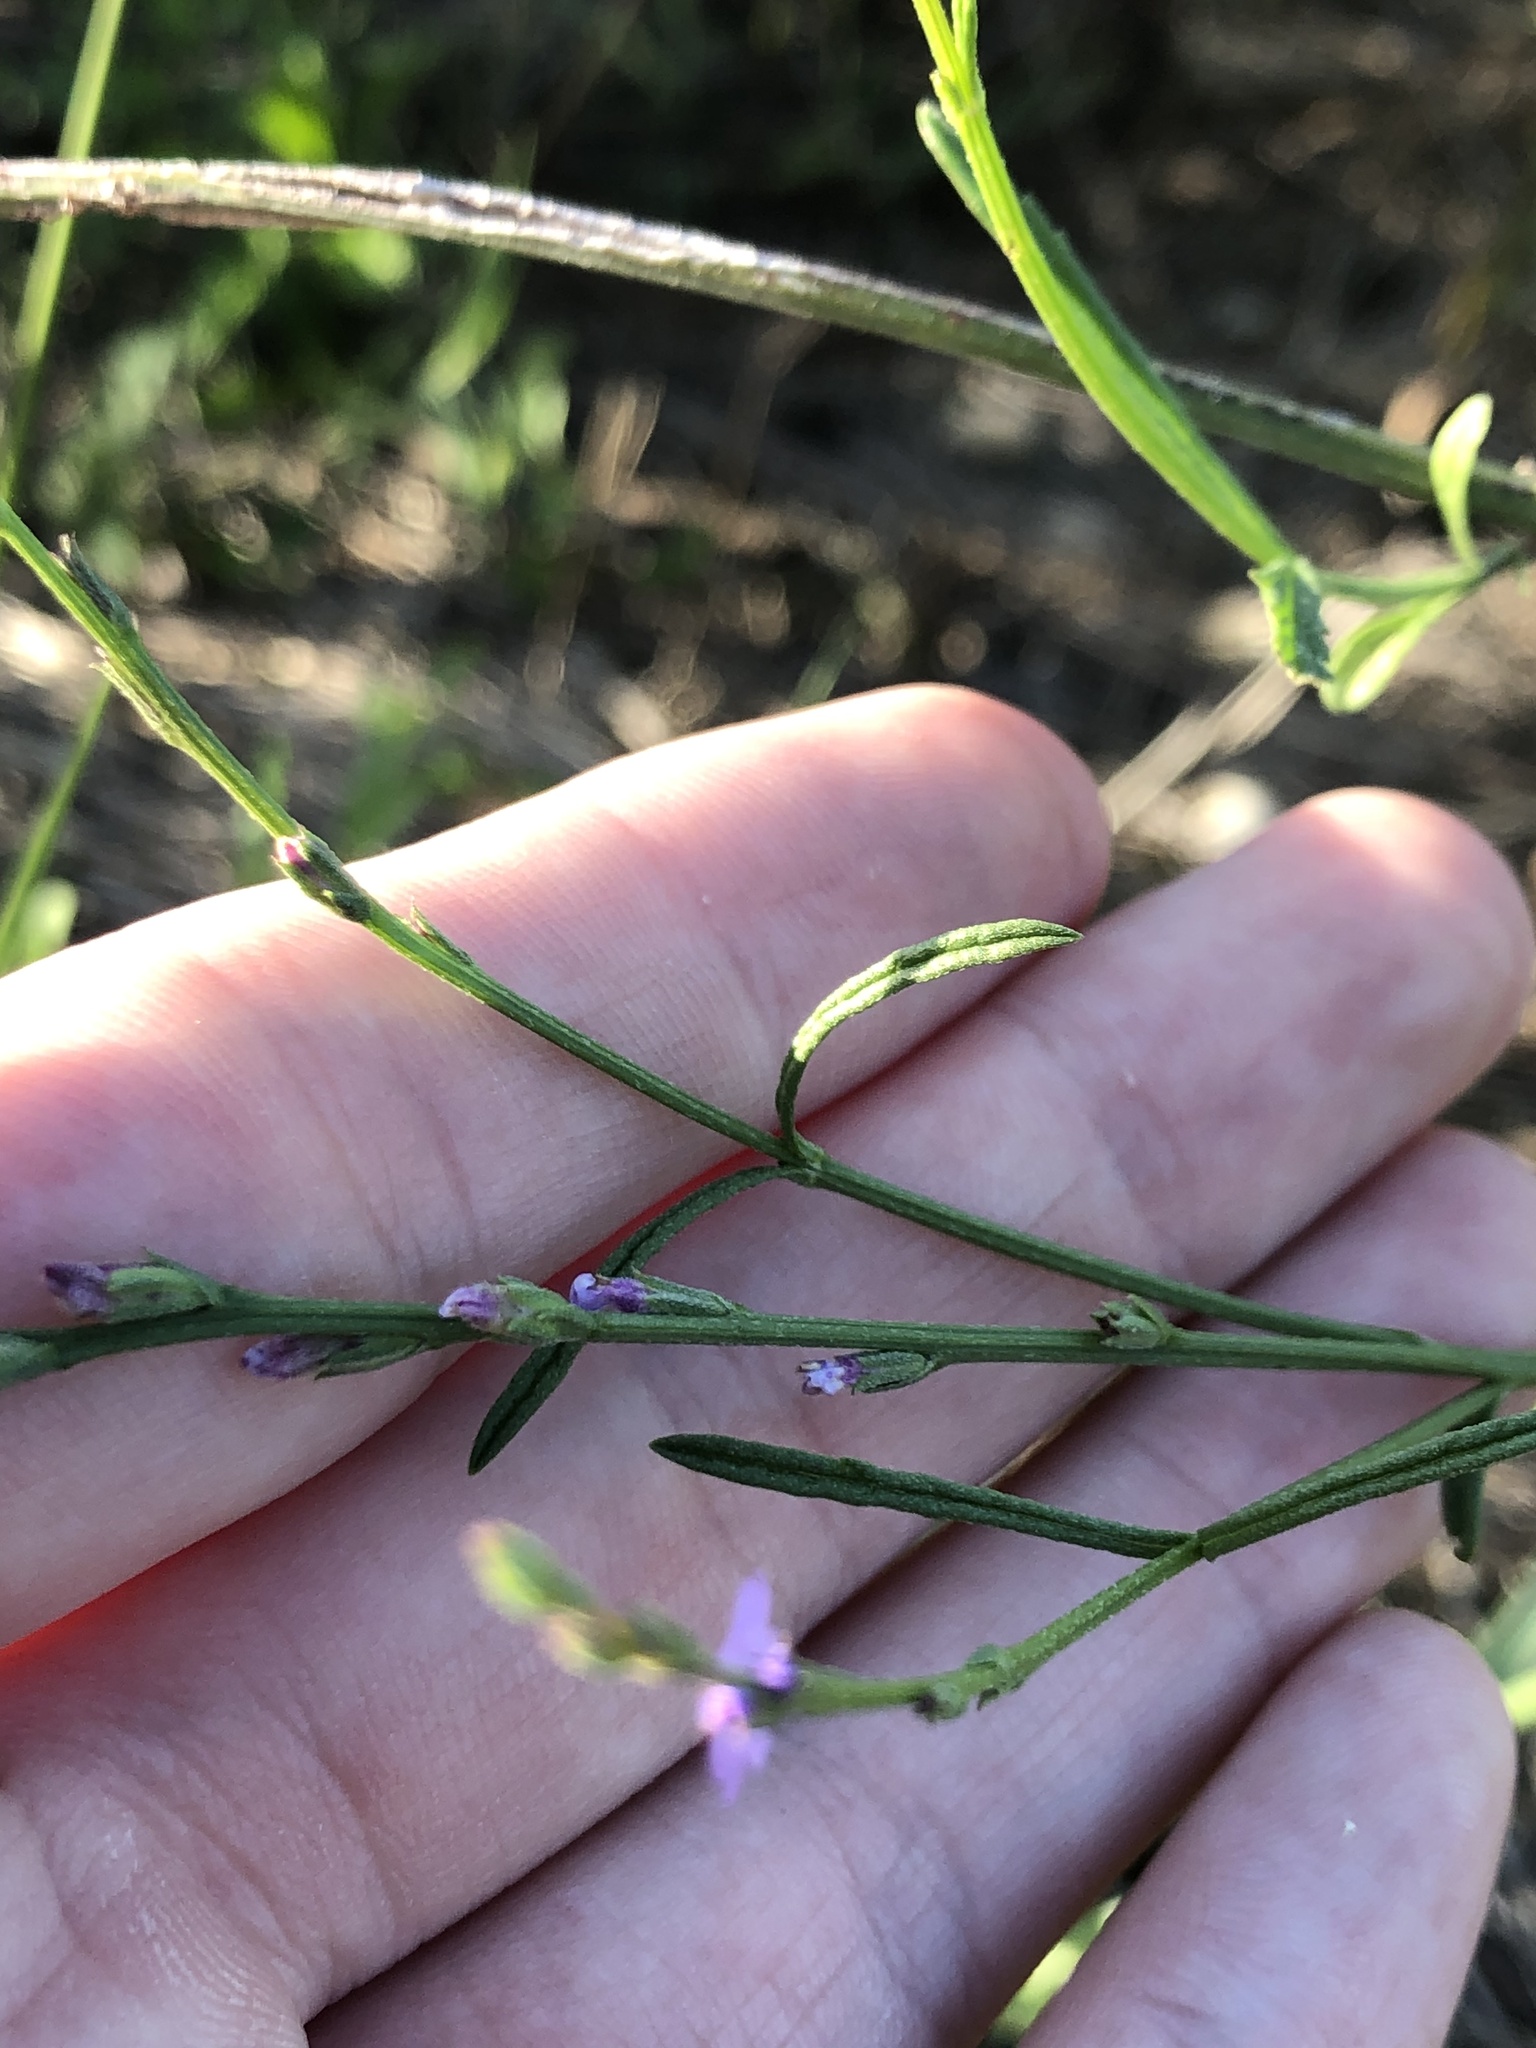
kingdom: Plantae
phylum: Tracheophyta
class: Magnoliopsida
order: Lamiales
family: Verbenaceae
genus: Verbena
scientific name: Verbena halei
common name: Texas vervain
